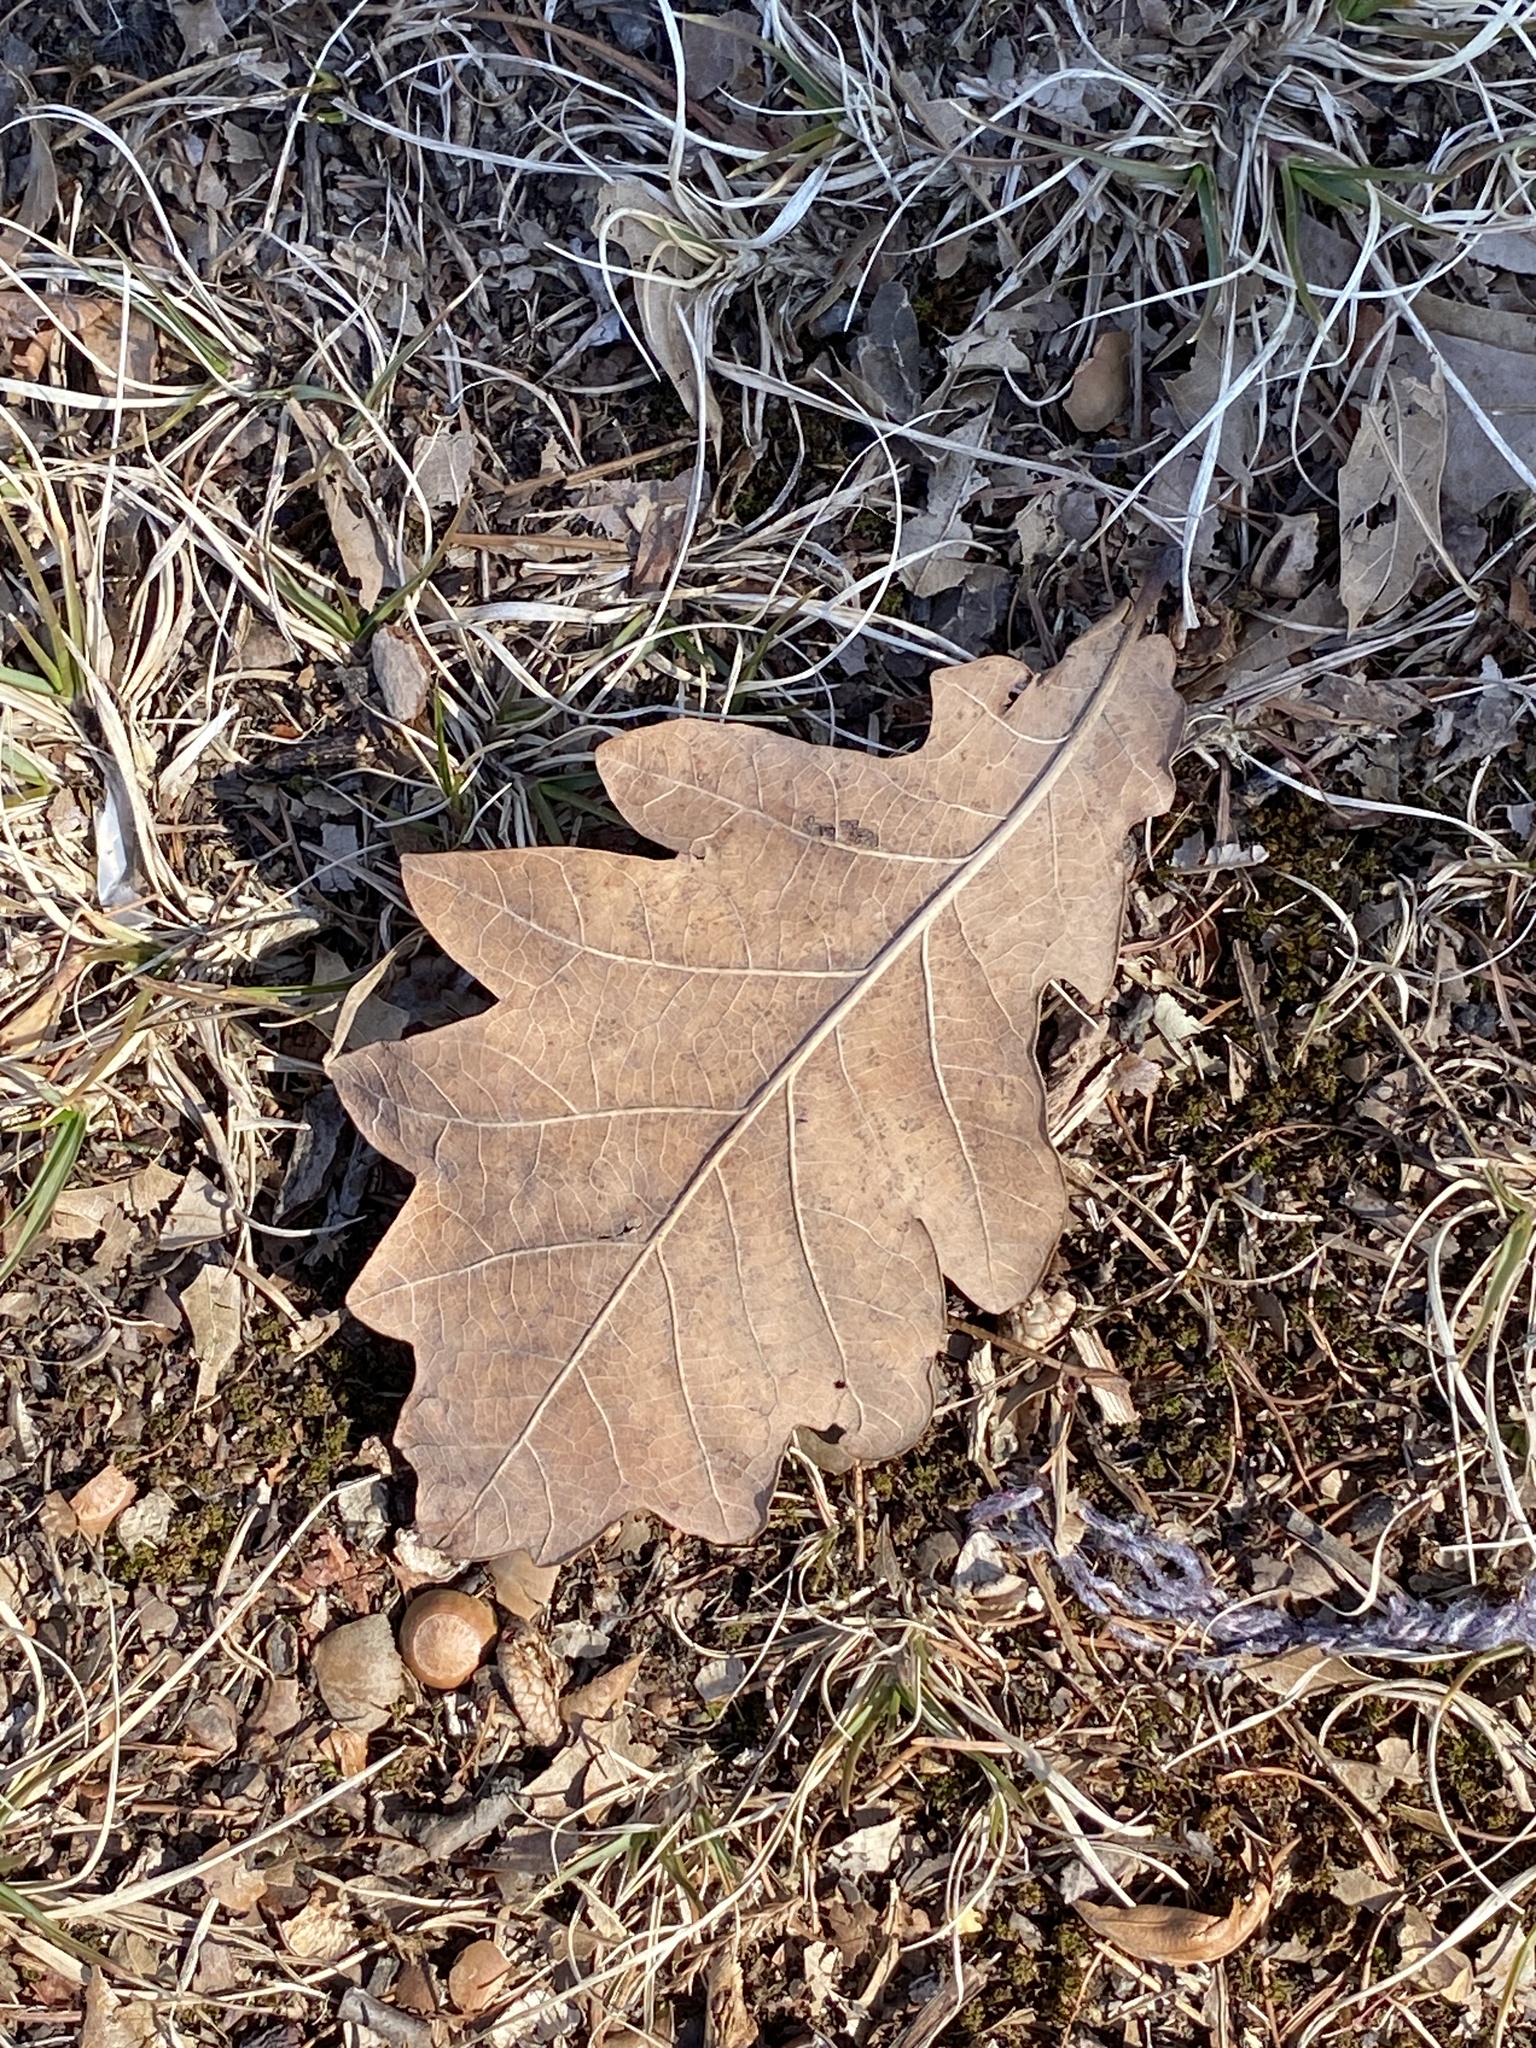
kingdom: Plantae
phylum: Tracheophyta
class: Magnoliopsida
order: Fagales
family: Fagaceae
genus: Quercus
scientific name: Quercus robur
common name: Pedunculate oak
